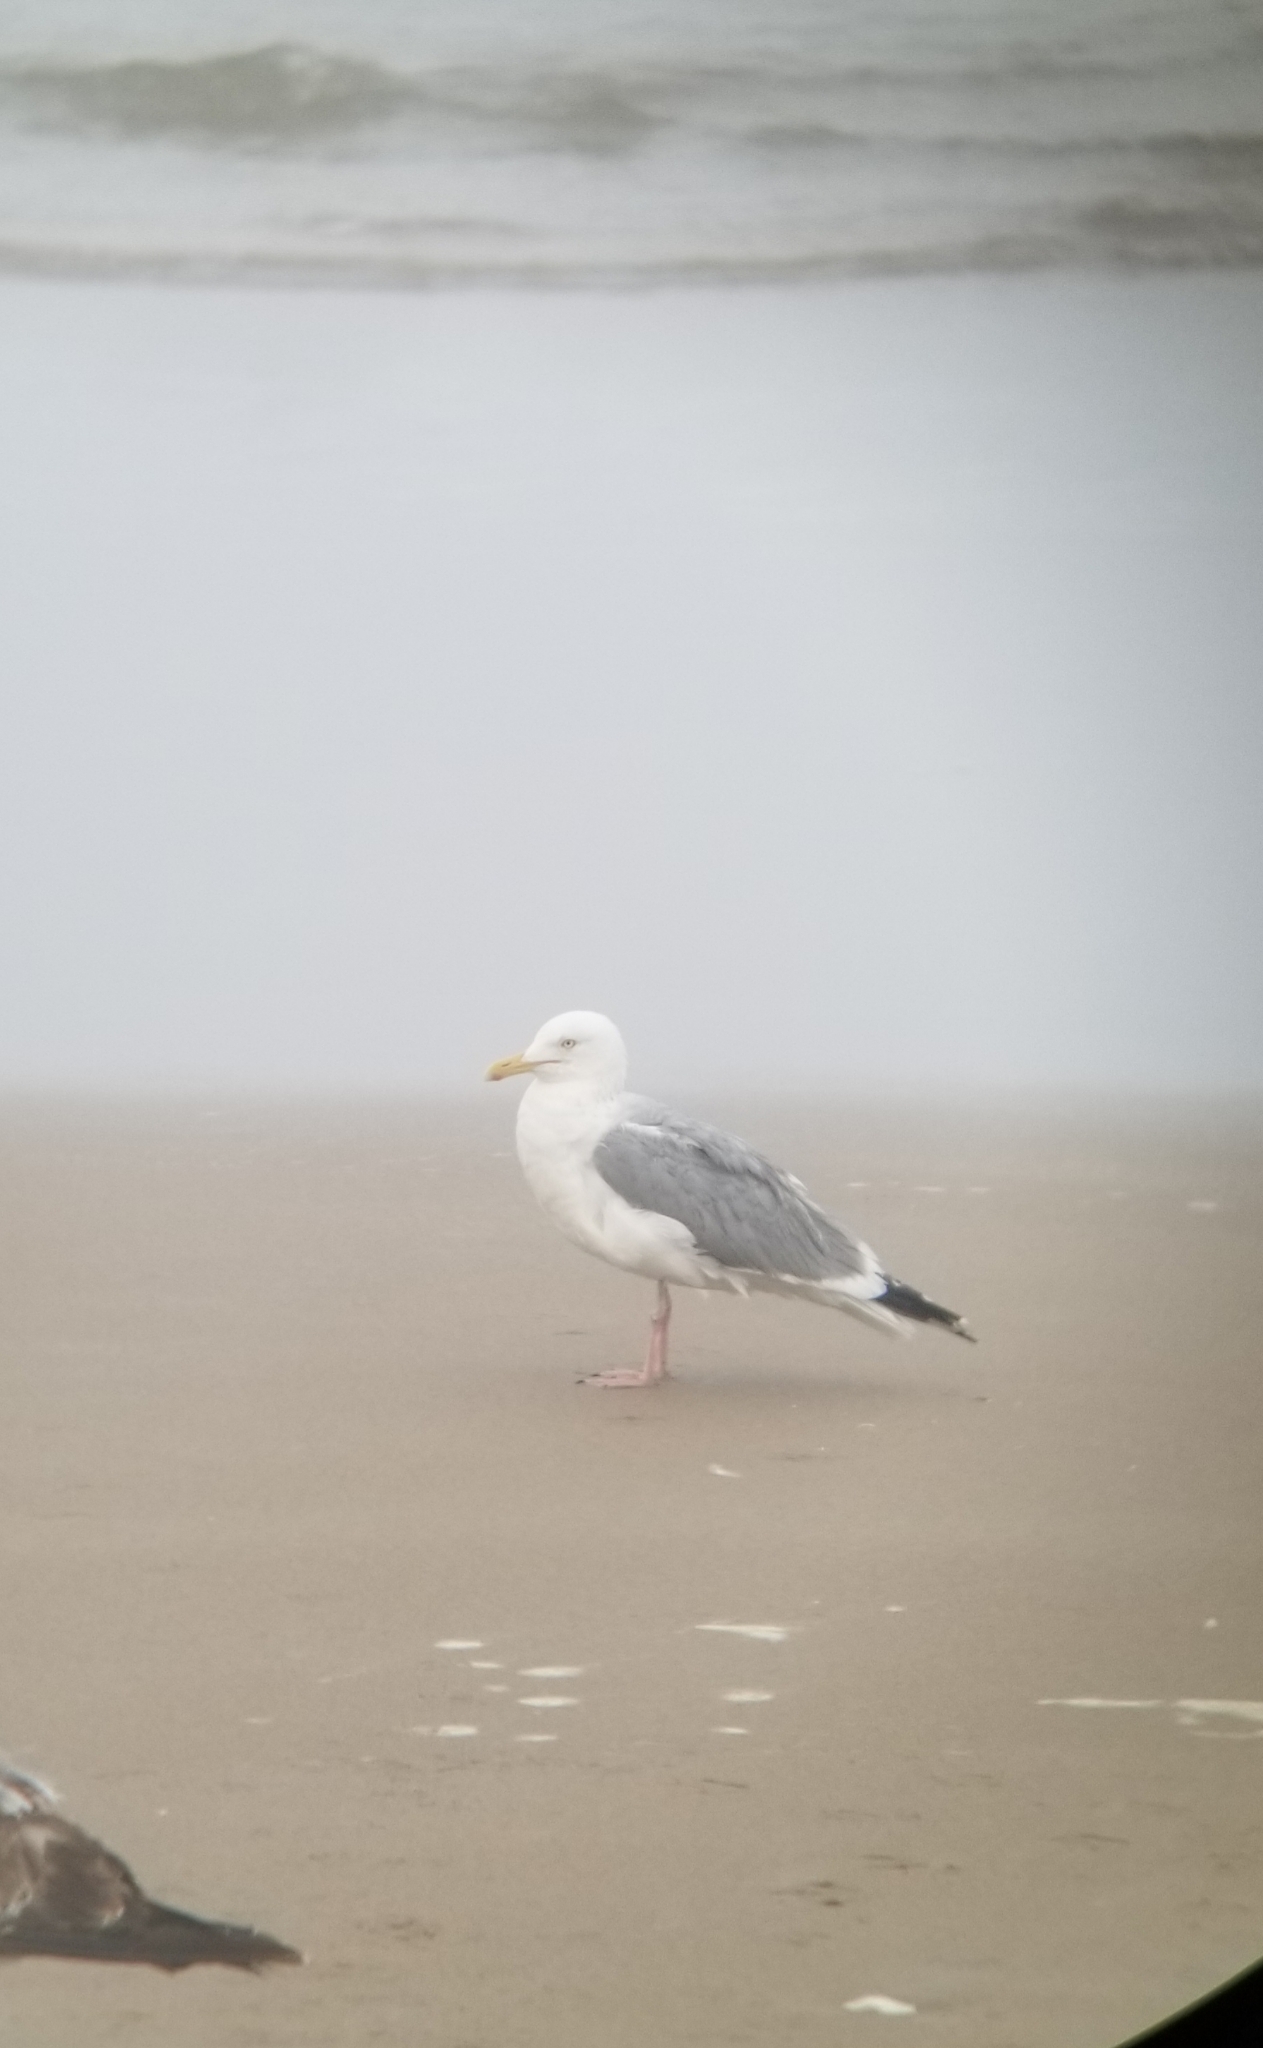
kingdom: Animalia
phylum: Chordata
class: Aves
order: Charadriiformes
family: Laridae
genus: Larus
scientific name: Larus argentatus
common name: Herring gull
